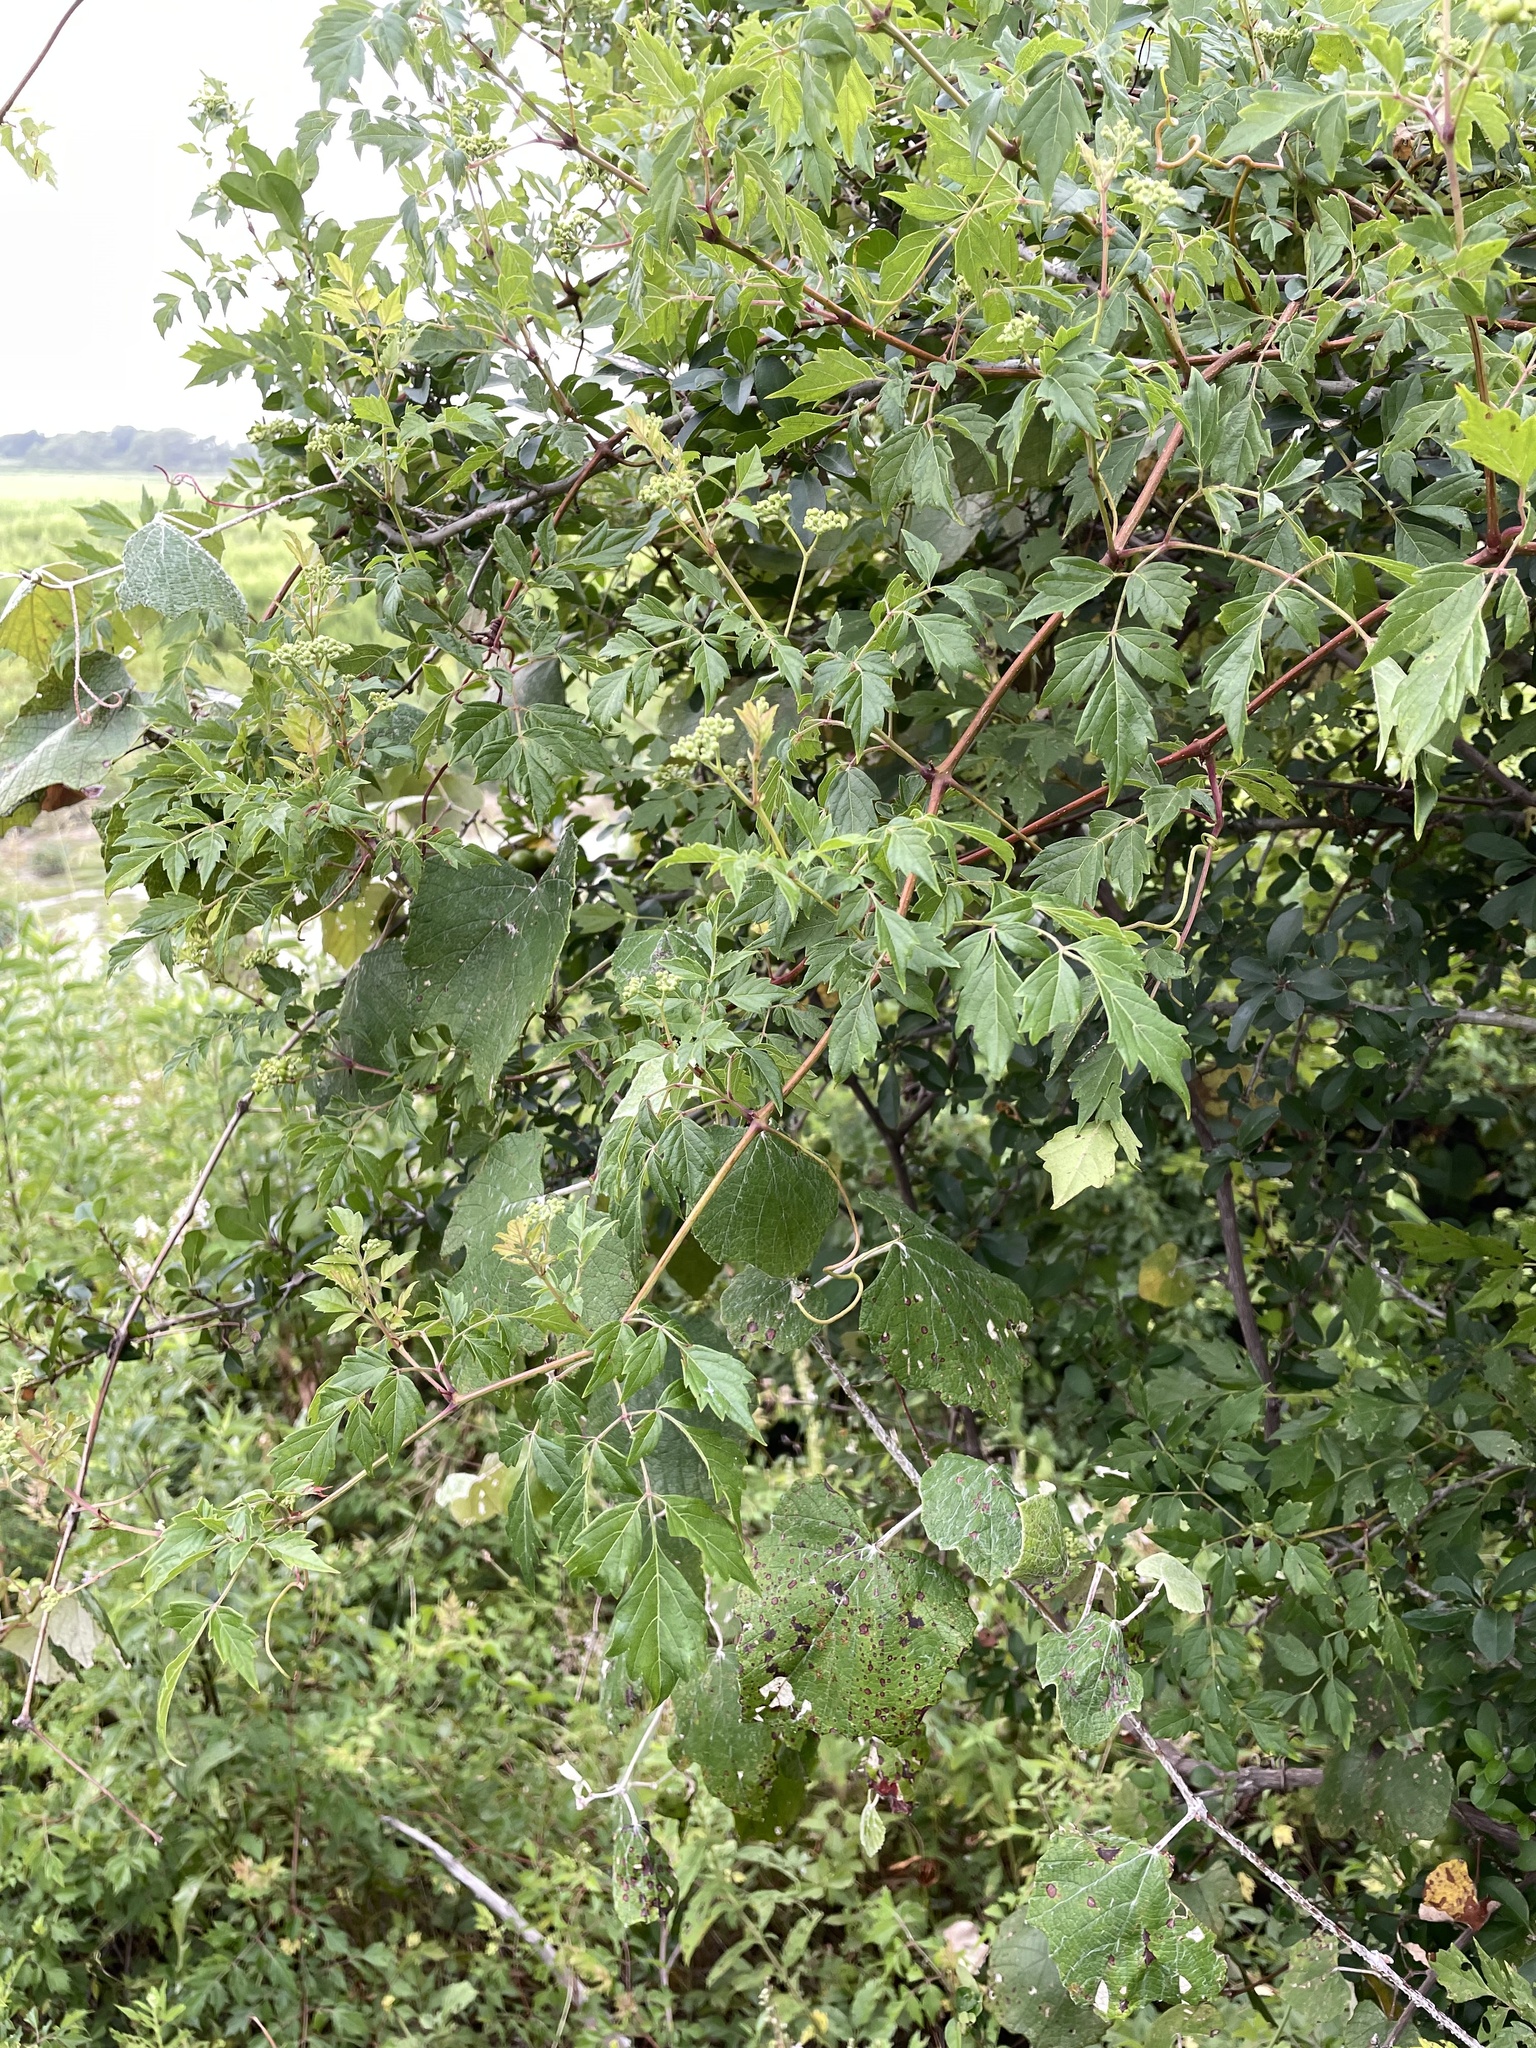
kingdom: Plantae
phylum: Tracheophyta
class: Magnoliopsida
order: Vitales
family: Vitaceae
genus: Nekemias
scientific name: Nekemias arborea
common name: Peppervine
